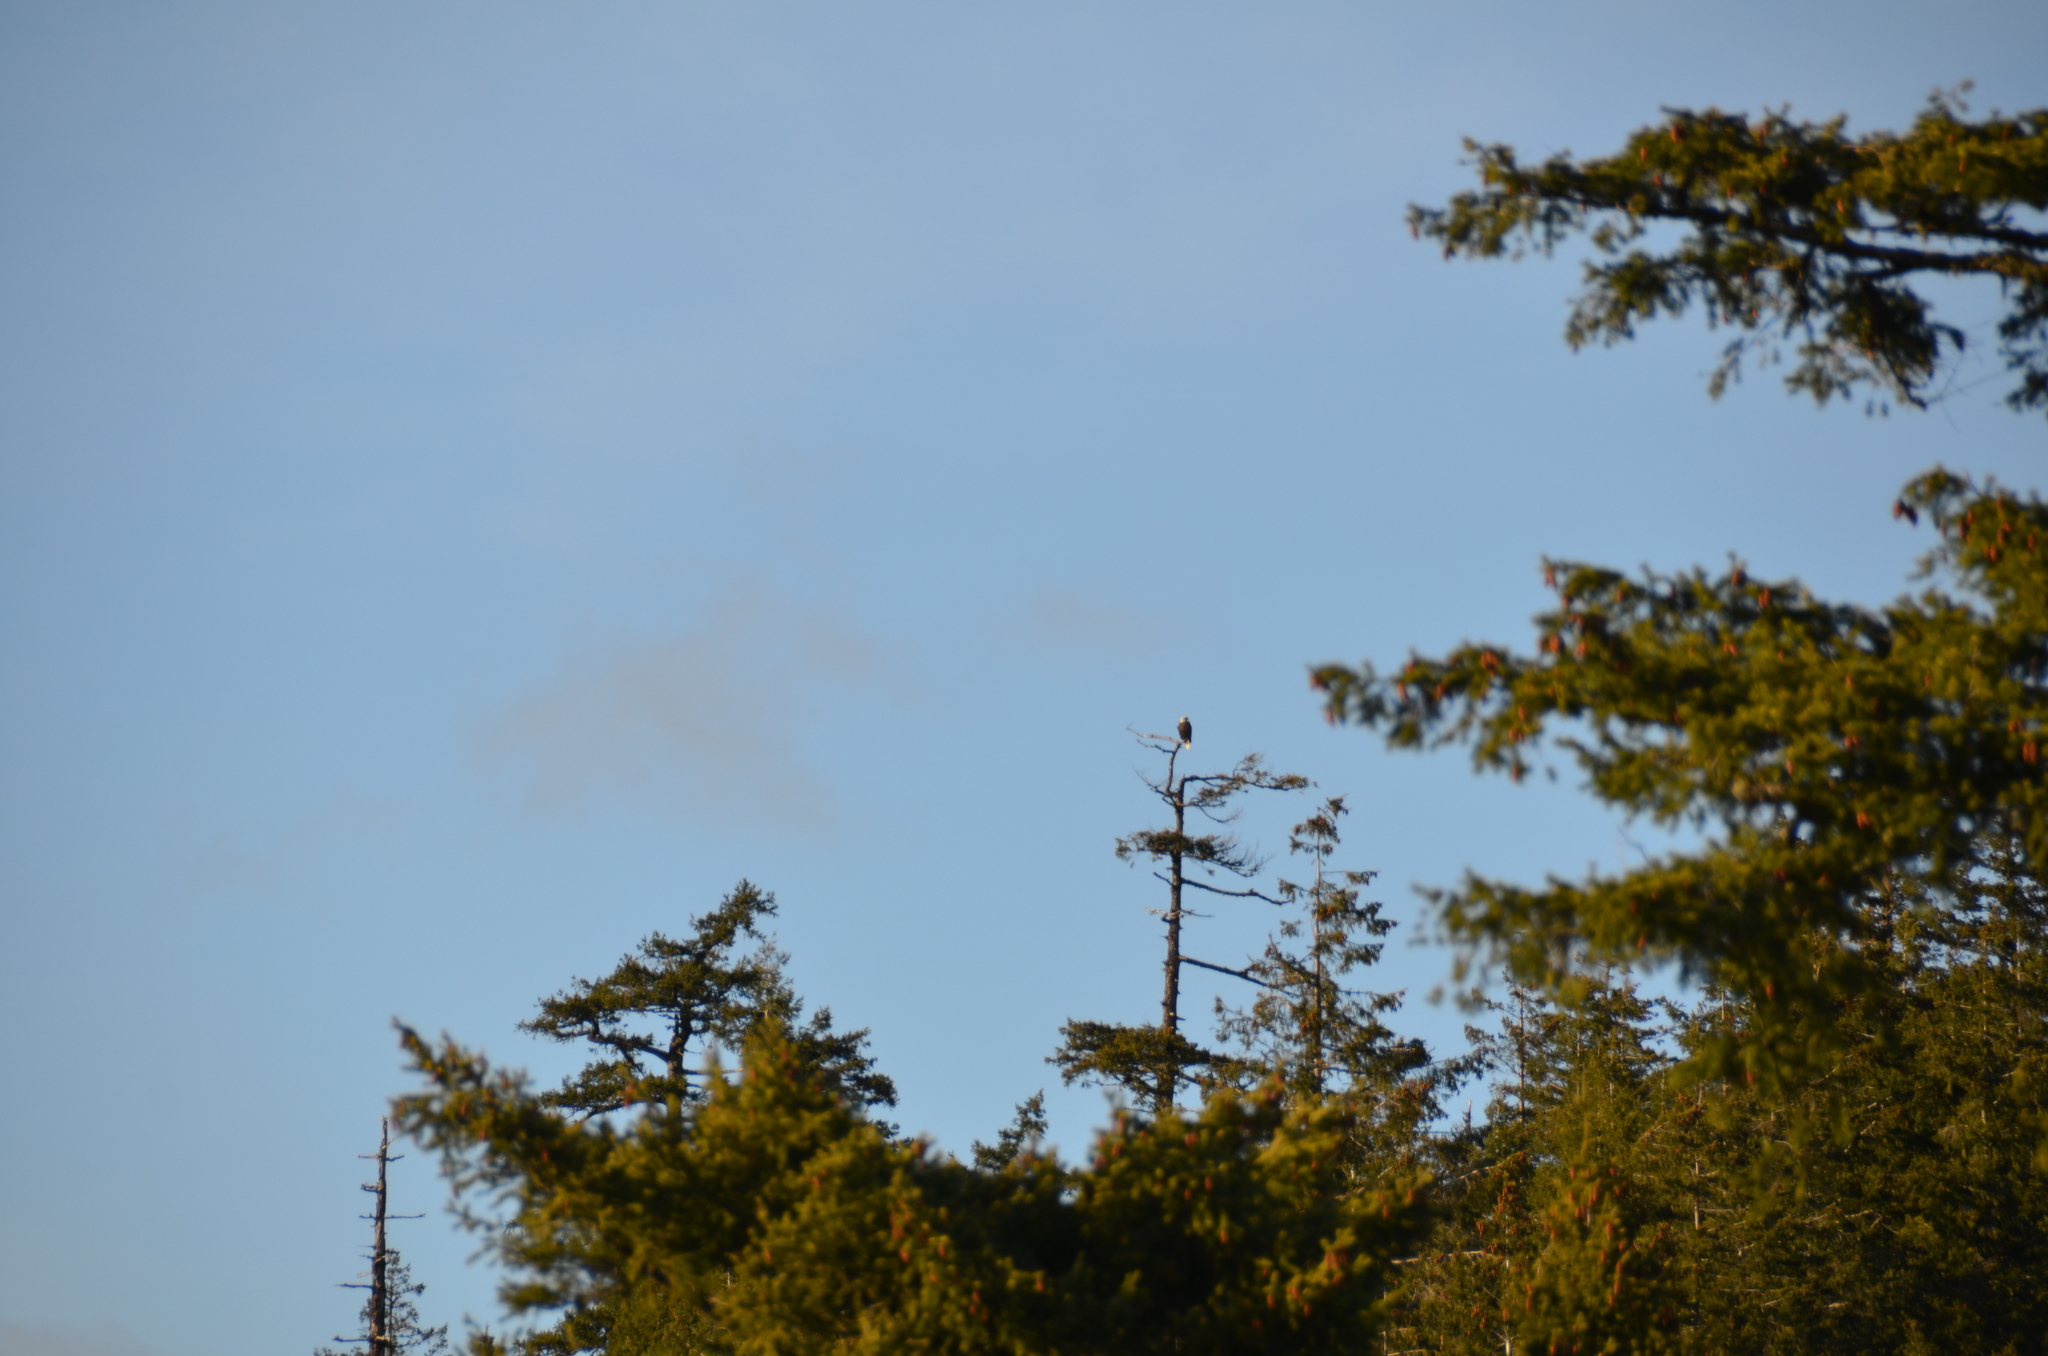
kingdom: Animalia
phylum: Chordata
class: Aves
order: Accipitriformes
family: Accipitridae
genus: Haliaeetus
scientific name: Haliaeetus leucocephalus
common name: Bald eagle
